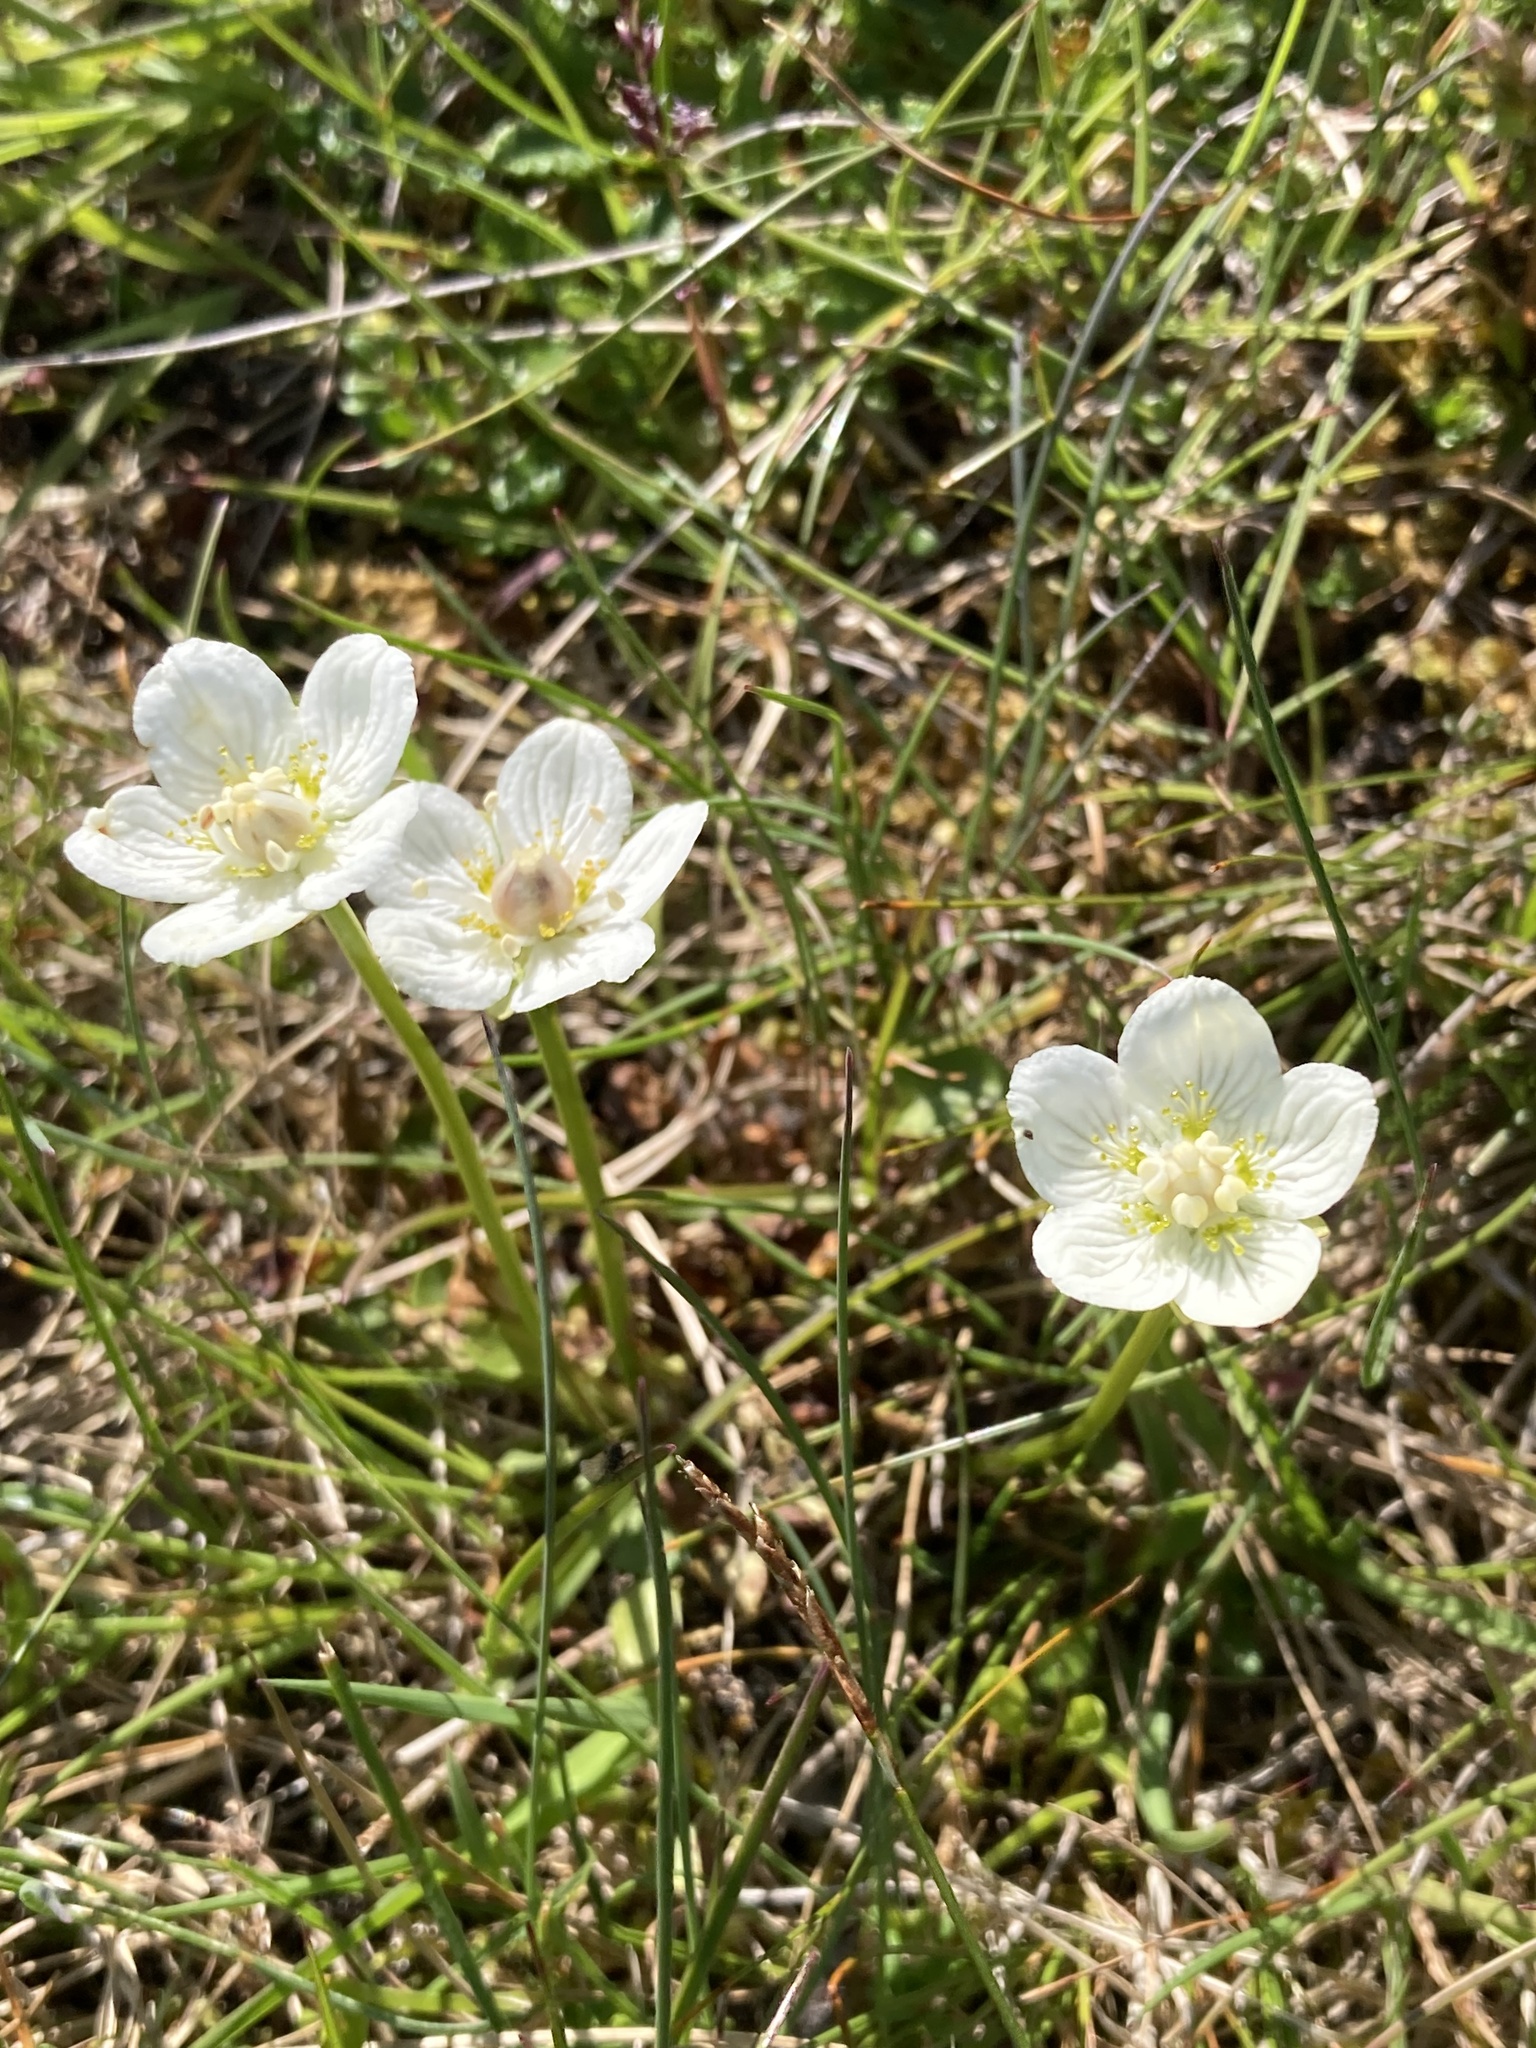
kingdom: Plantae
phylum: Tracheophyta
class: Magnoliopsida
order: Celastrales
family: Parnassiaceae
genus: Parnassia
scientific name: Parnassia palustris
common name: Grass-of-parnassus
